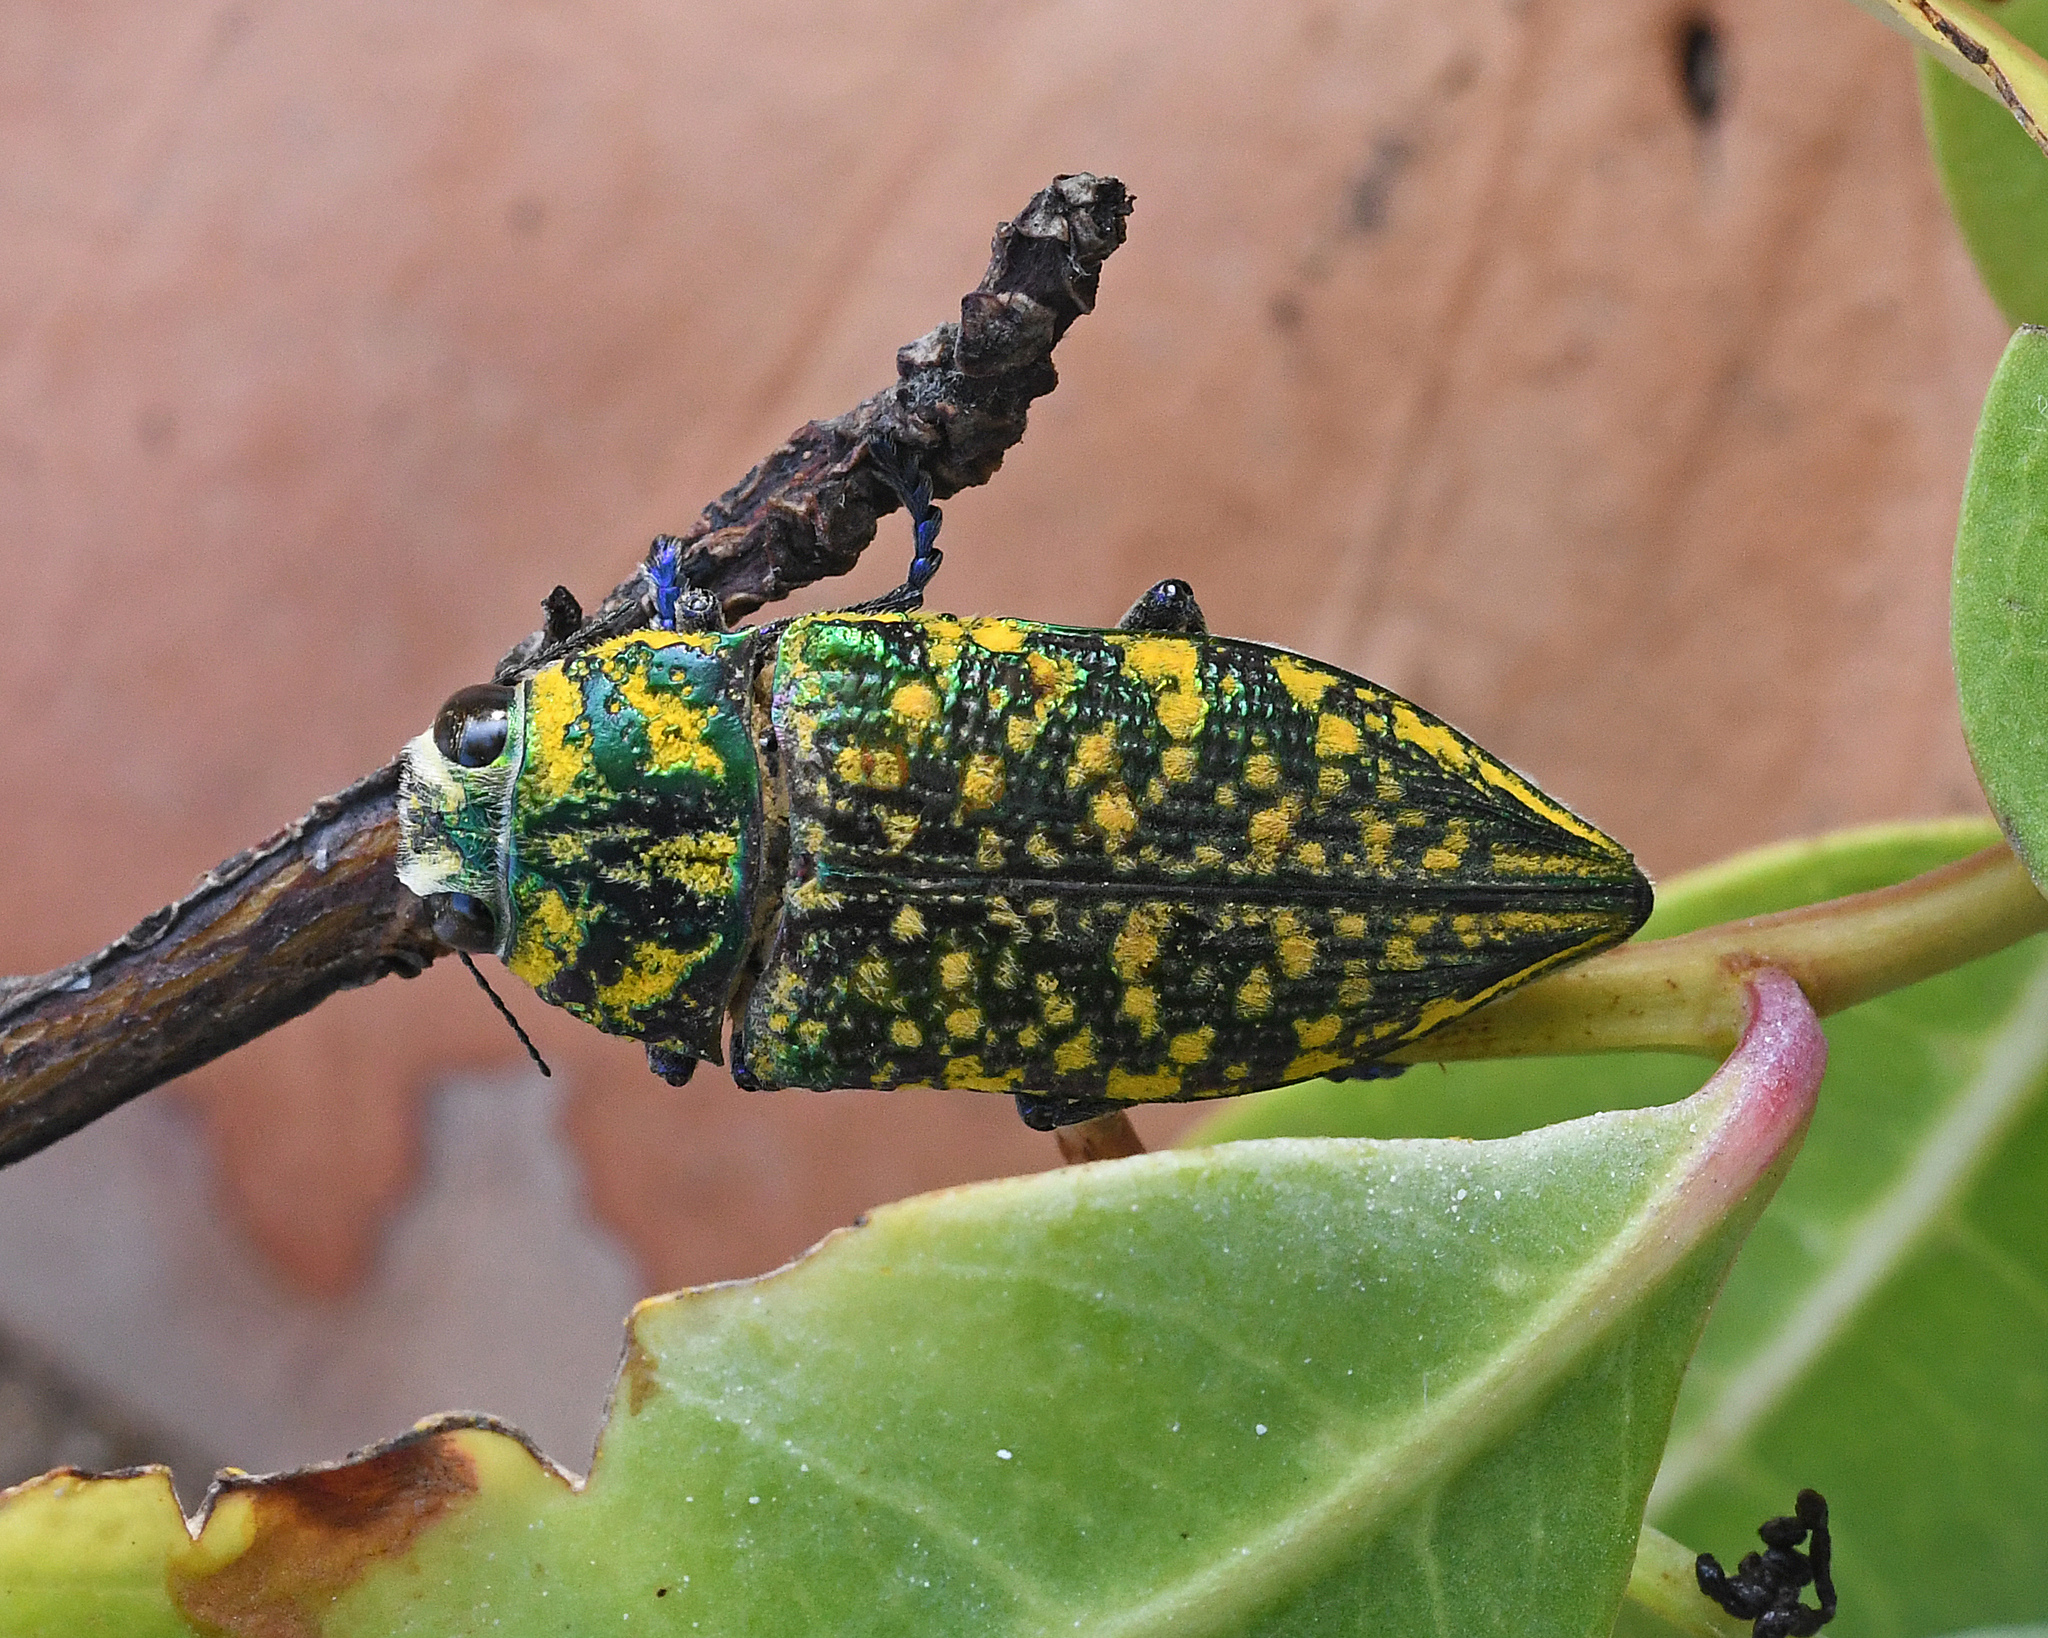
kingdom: Animalia
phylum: Arthropoda
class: Insecta
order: Coleoptera
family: Buprestidae
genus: Lampetis
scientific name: Lampetis
